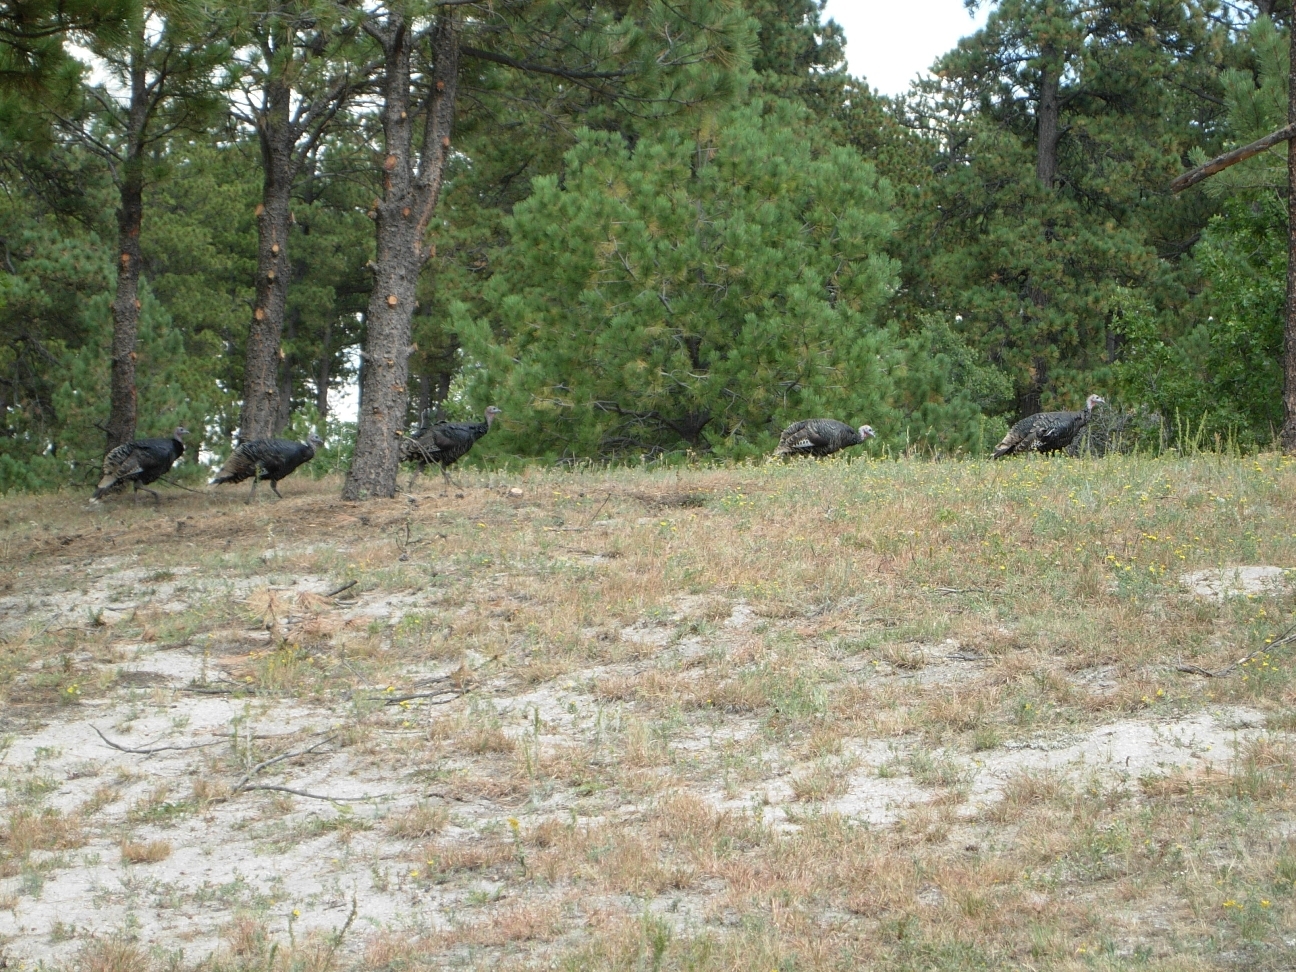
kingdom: Animalia
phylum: Chordata
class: Aves
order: Galliformes
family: Phasianidae
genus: Meleagris
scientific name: Meleagris gallopavo
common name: Wild turkey
